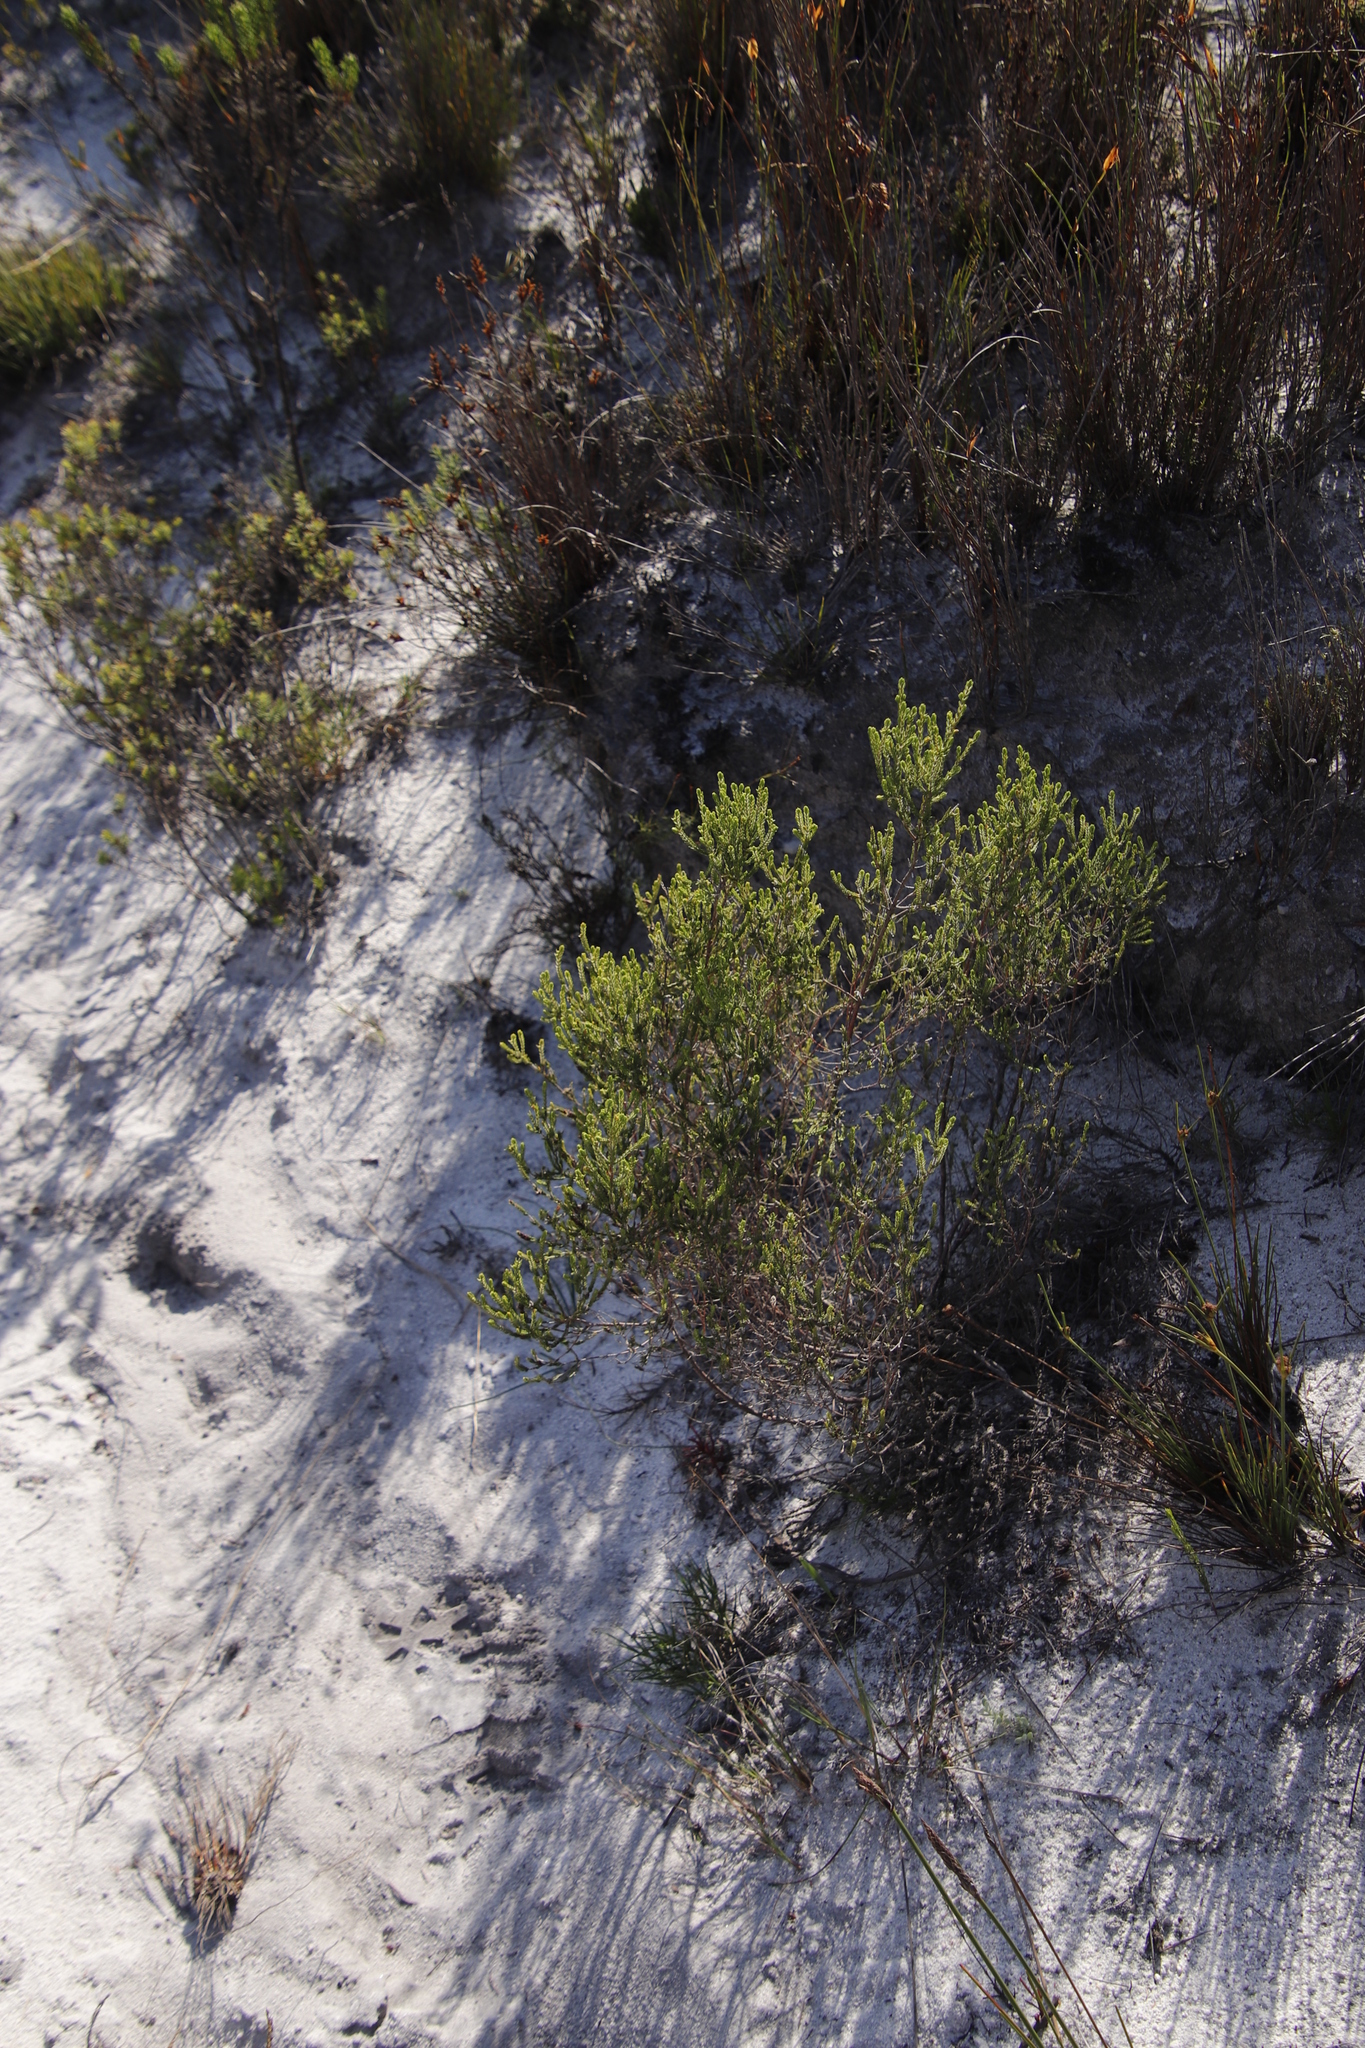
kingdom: Plantae
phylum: Tracheophyta
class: Magnoliopsida
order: Malvales
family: Thymelaeaceae
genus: Passerina
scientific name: Passerina corymbosa
